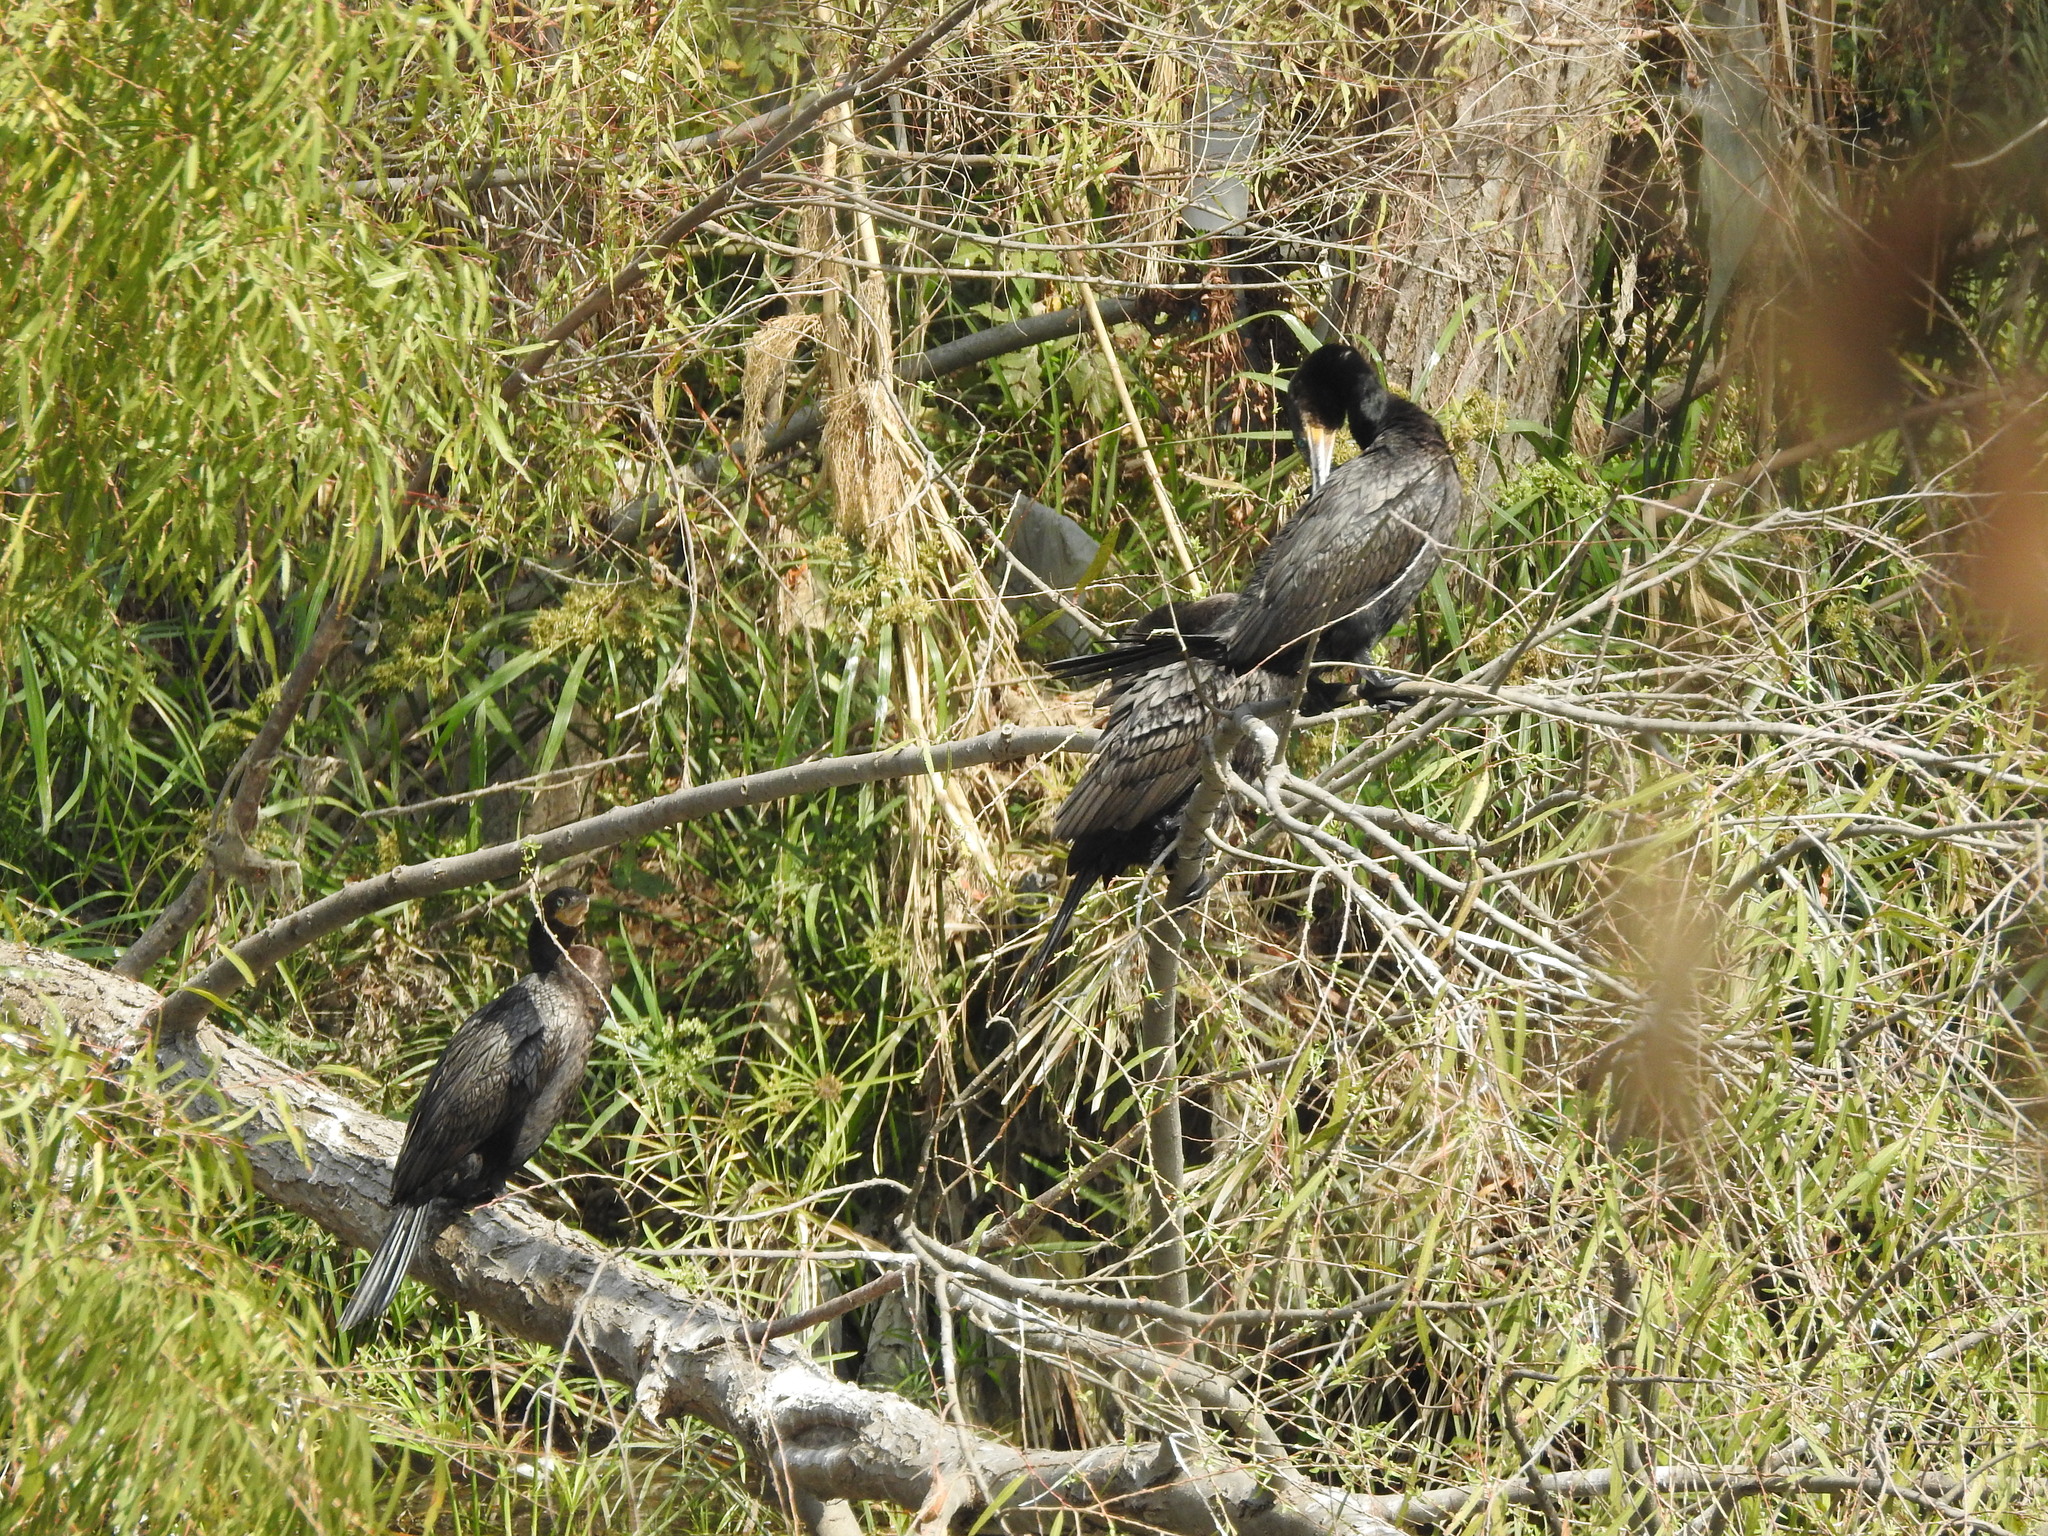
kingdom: Animalia
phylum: Chordata
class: Aves
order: Suliformes
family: Phalacrocoracidae
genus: Phalacrocorax
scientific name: Phalacrocorax brasilianus
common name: Neotropic cormorant
